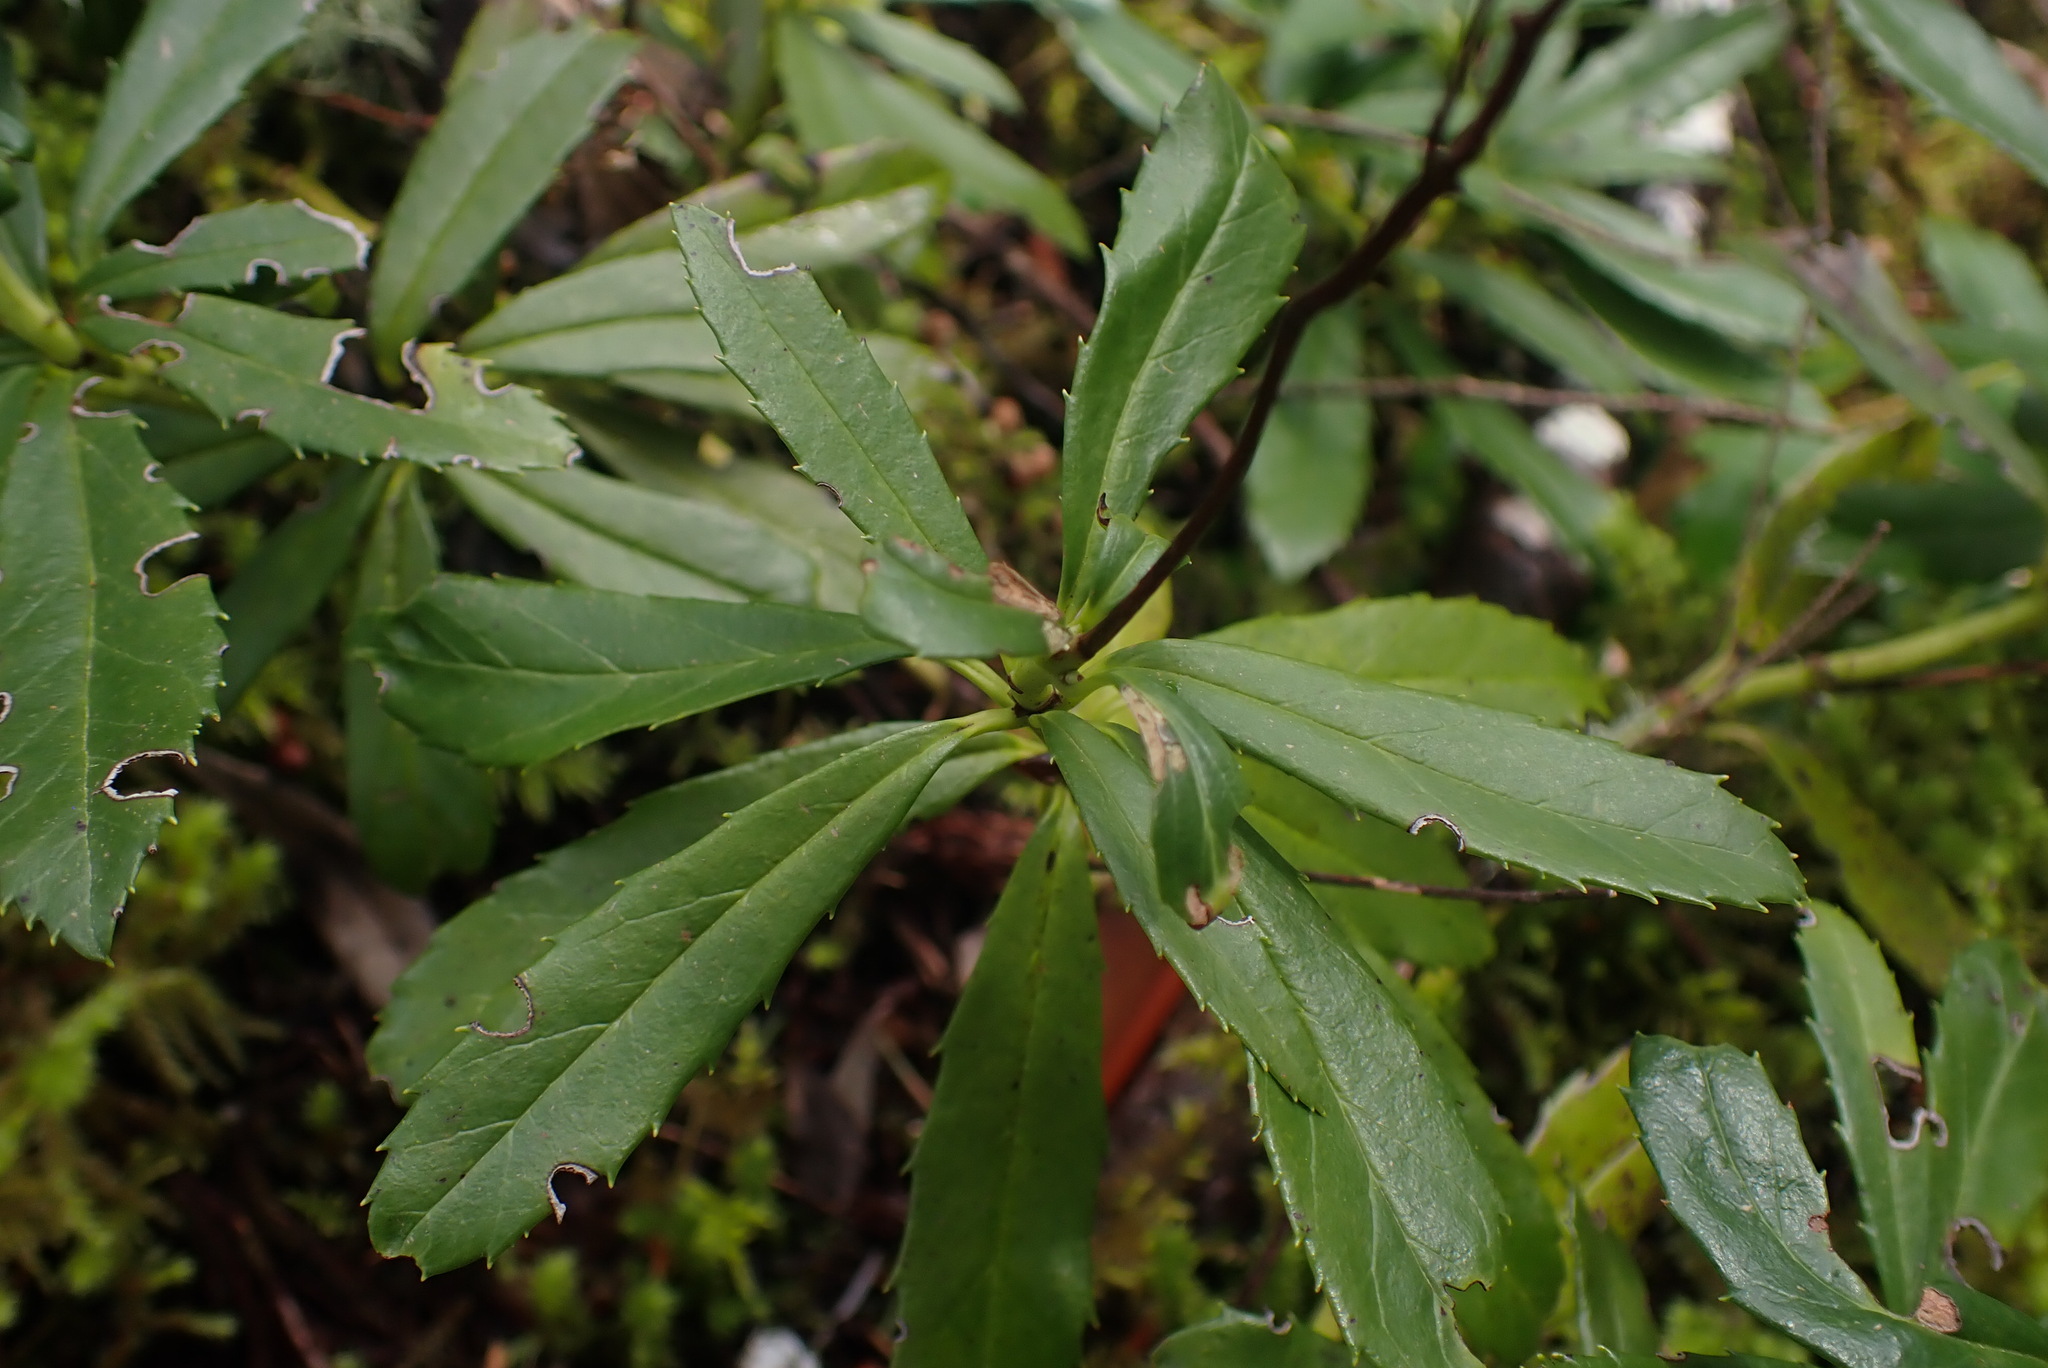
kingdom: Plantae
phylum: Tracheophyta
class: Magnoliopsida
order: Ericales
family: Ericaceae
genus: Chimaphila
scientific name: Chimaphila umbellata
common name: Pipsissewa
